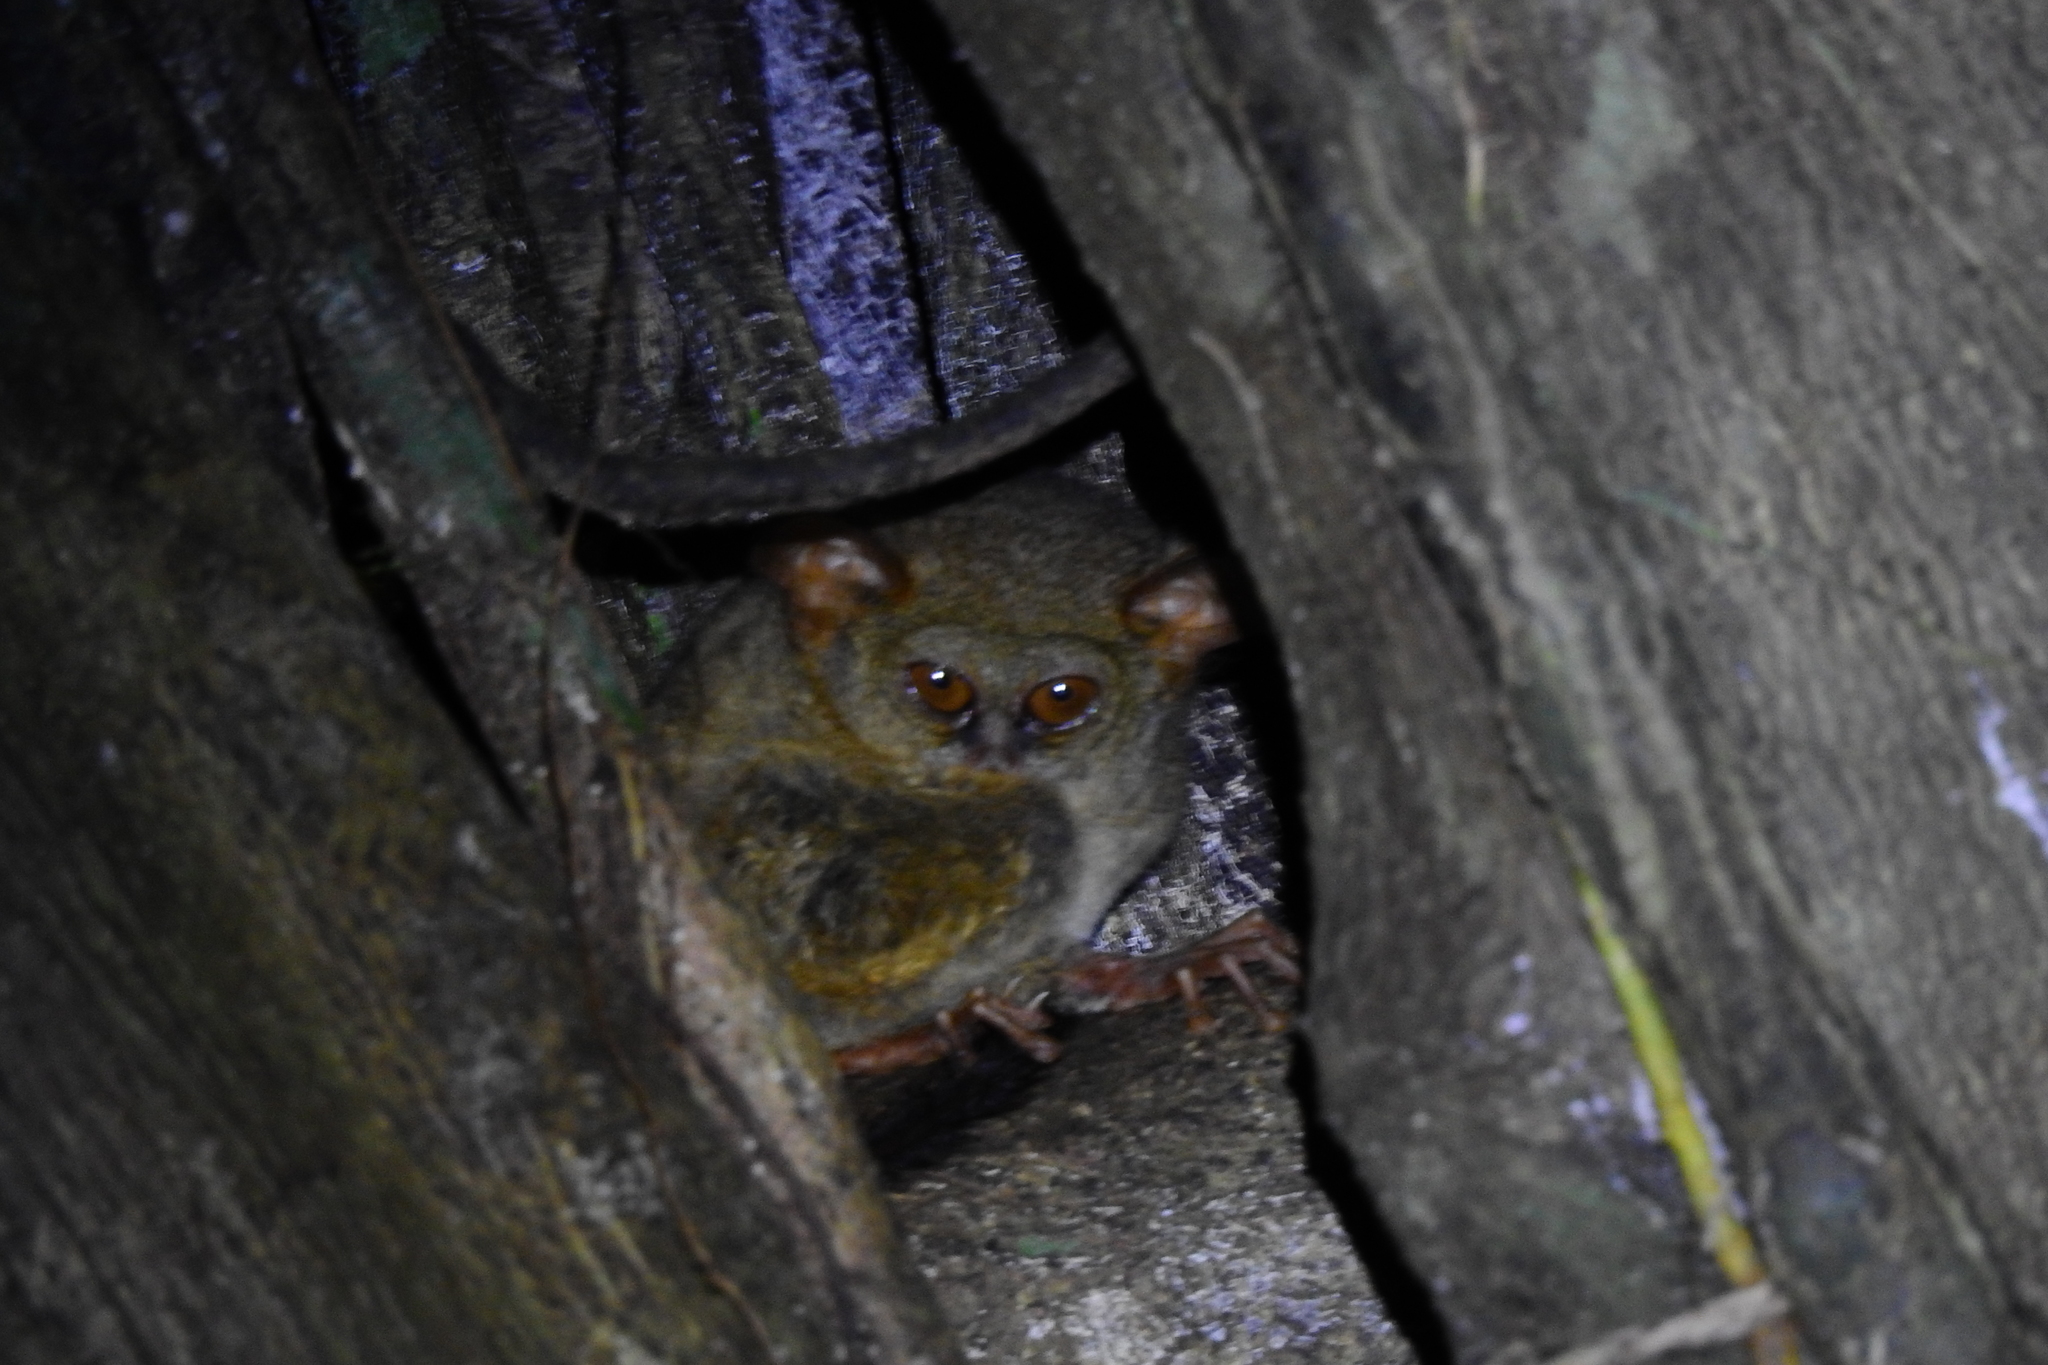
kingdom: Animalia
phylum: Chordata
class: Mammalia
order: Primates
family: Tarsiidae
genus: Tarsius
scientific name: Tarsius tarsier
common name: Spectral tarsier
